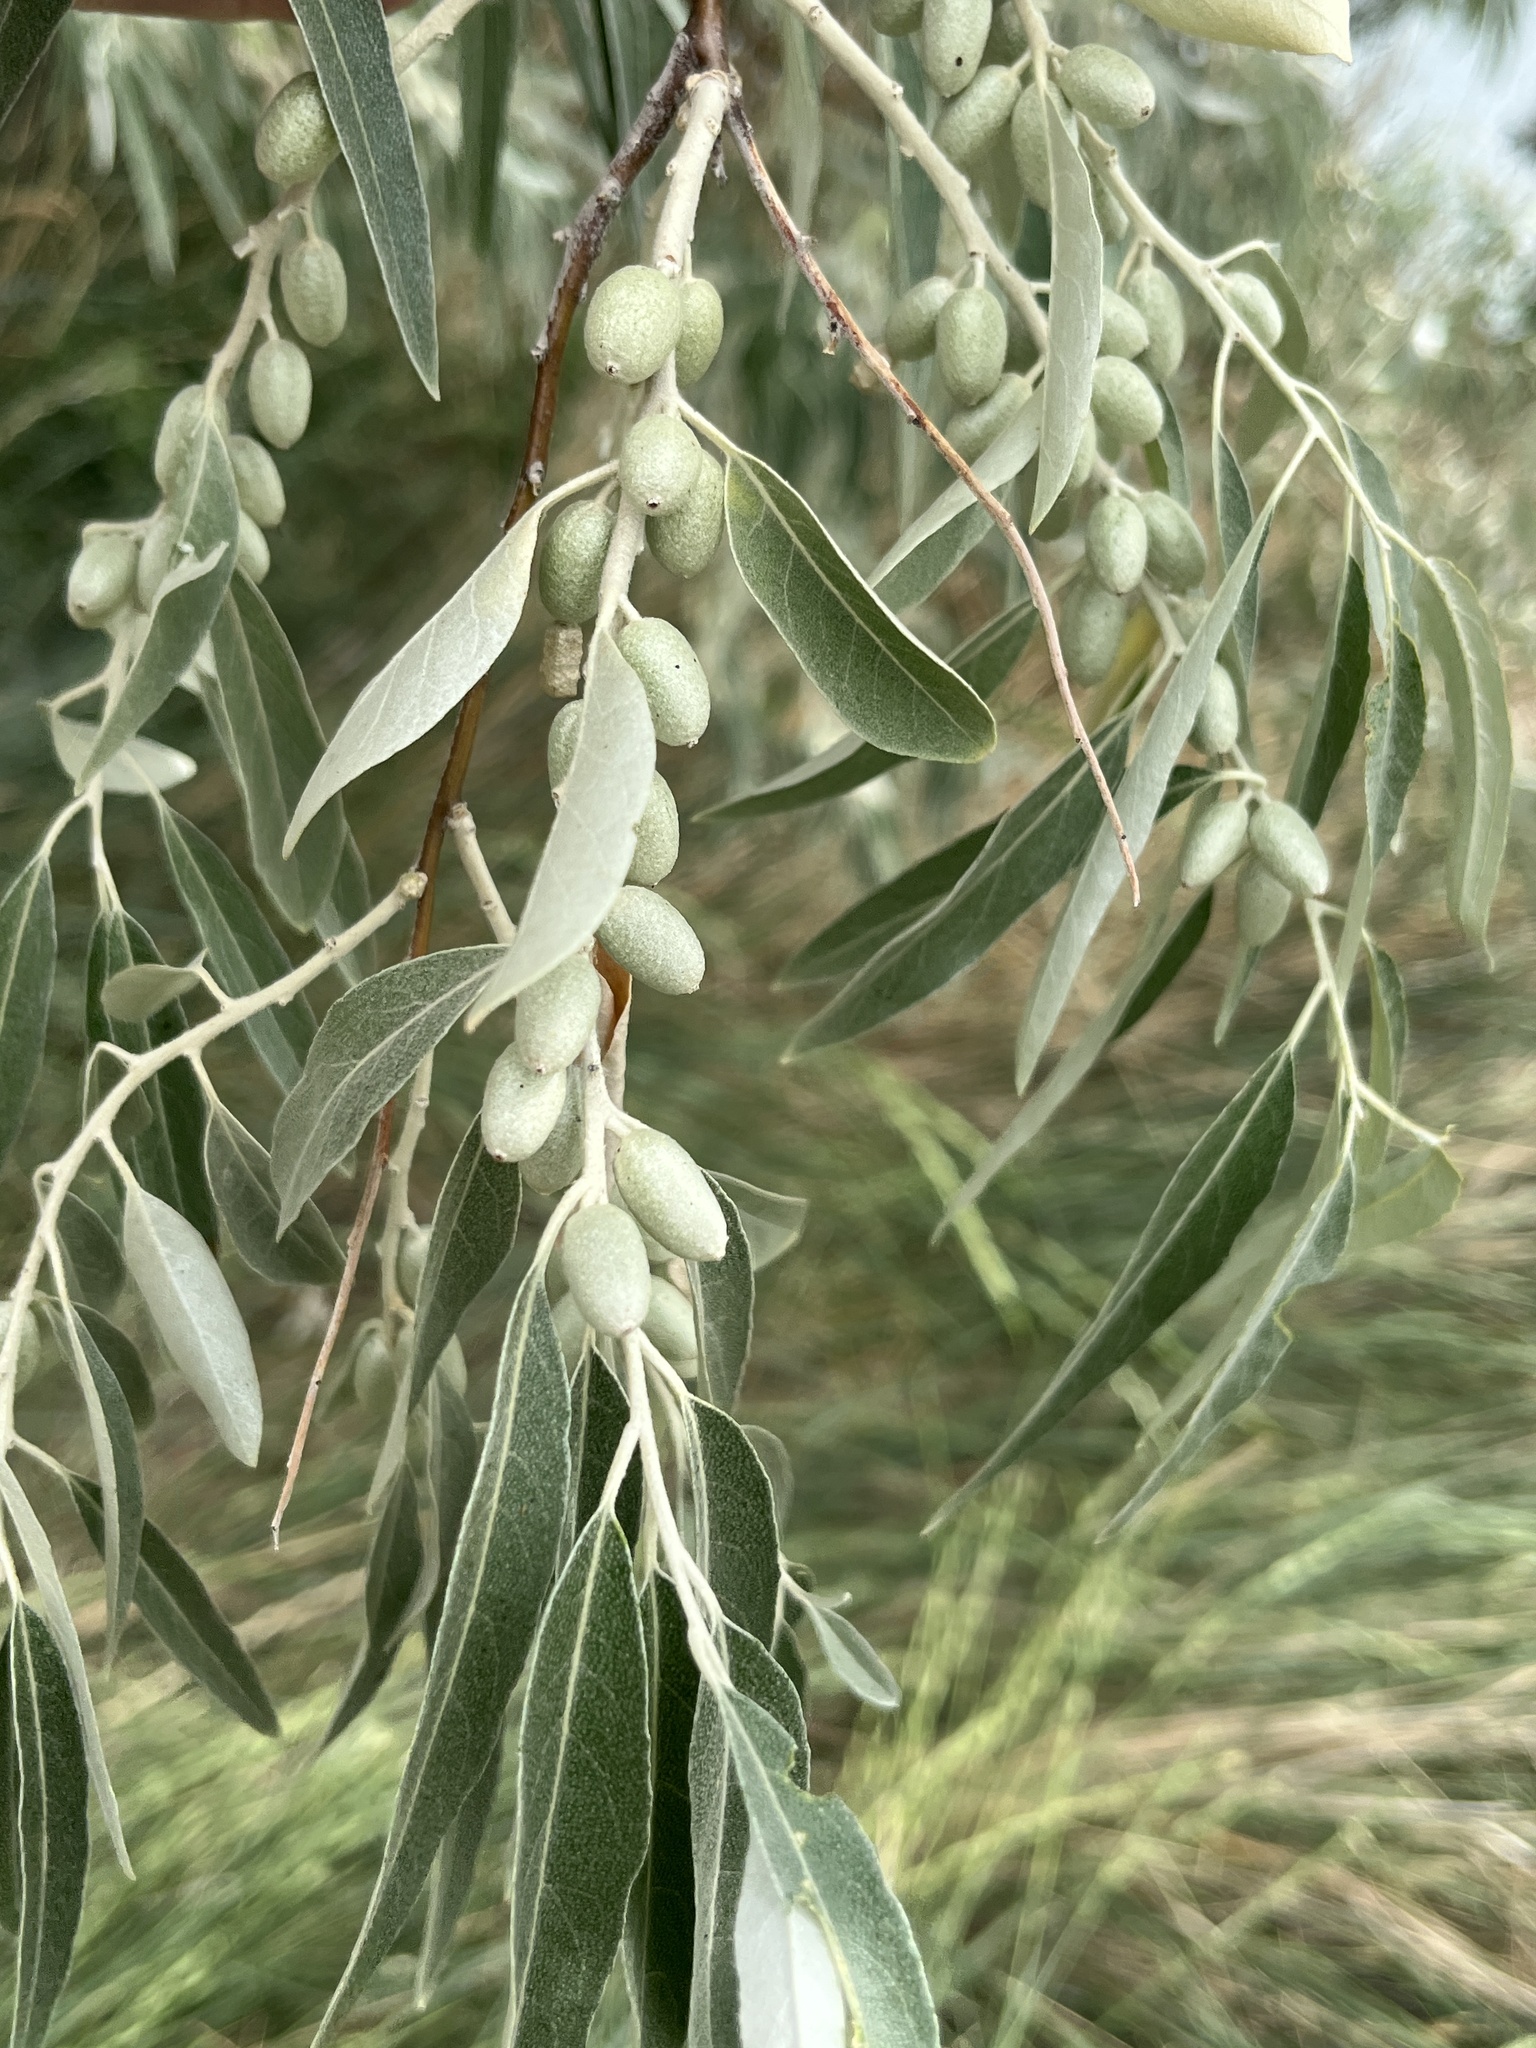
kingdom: Plantae
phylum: Tracheophyta
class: Magnoliopsida
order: Rosales
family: Elaeagnaceae
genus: Elaeagnus
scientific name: Elaeagnus angustifolia
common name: Russian olive
